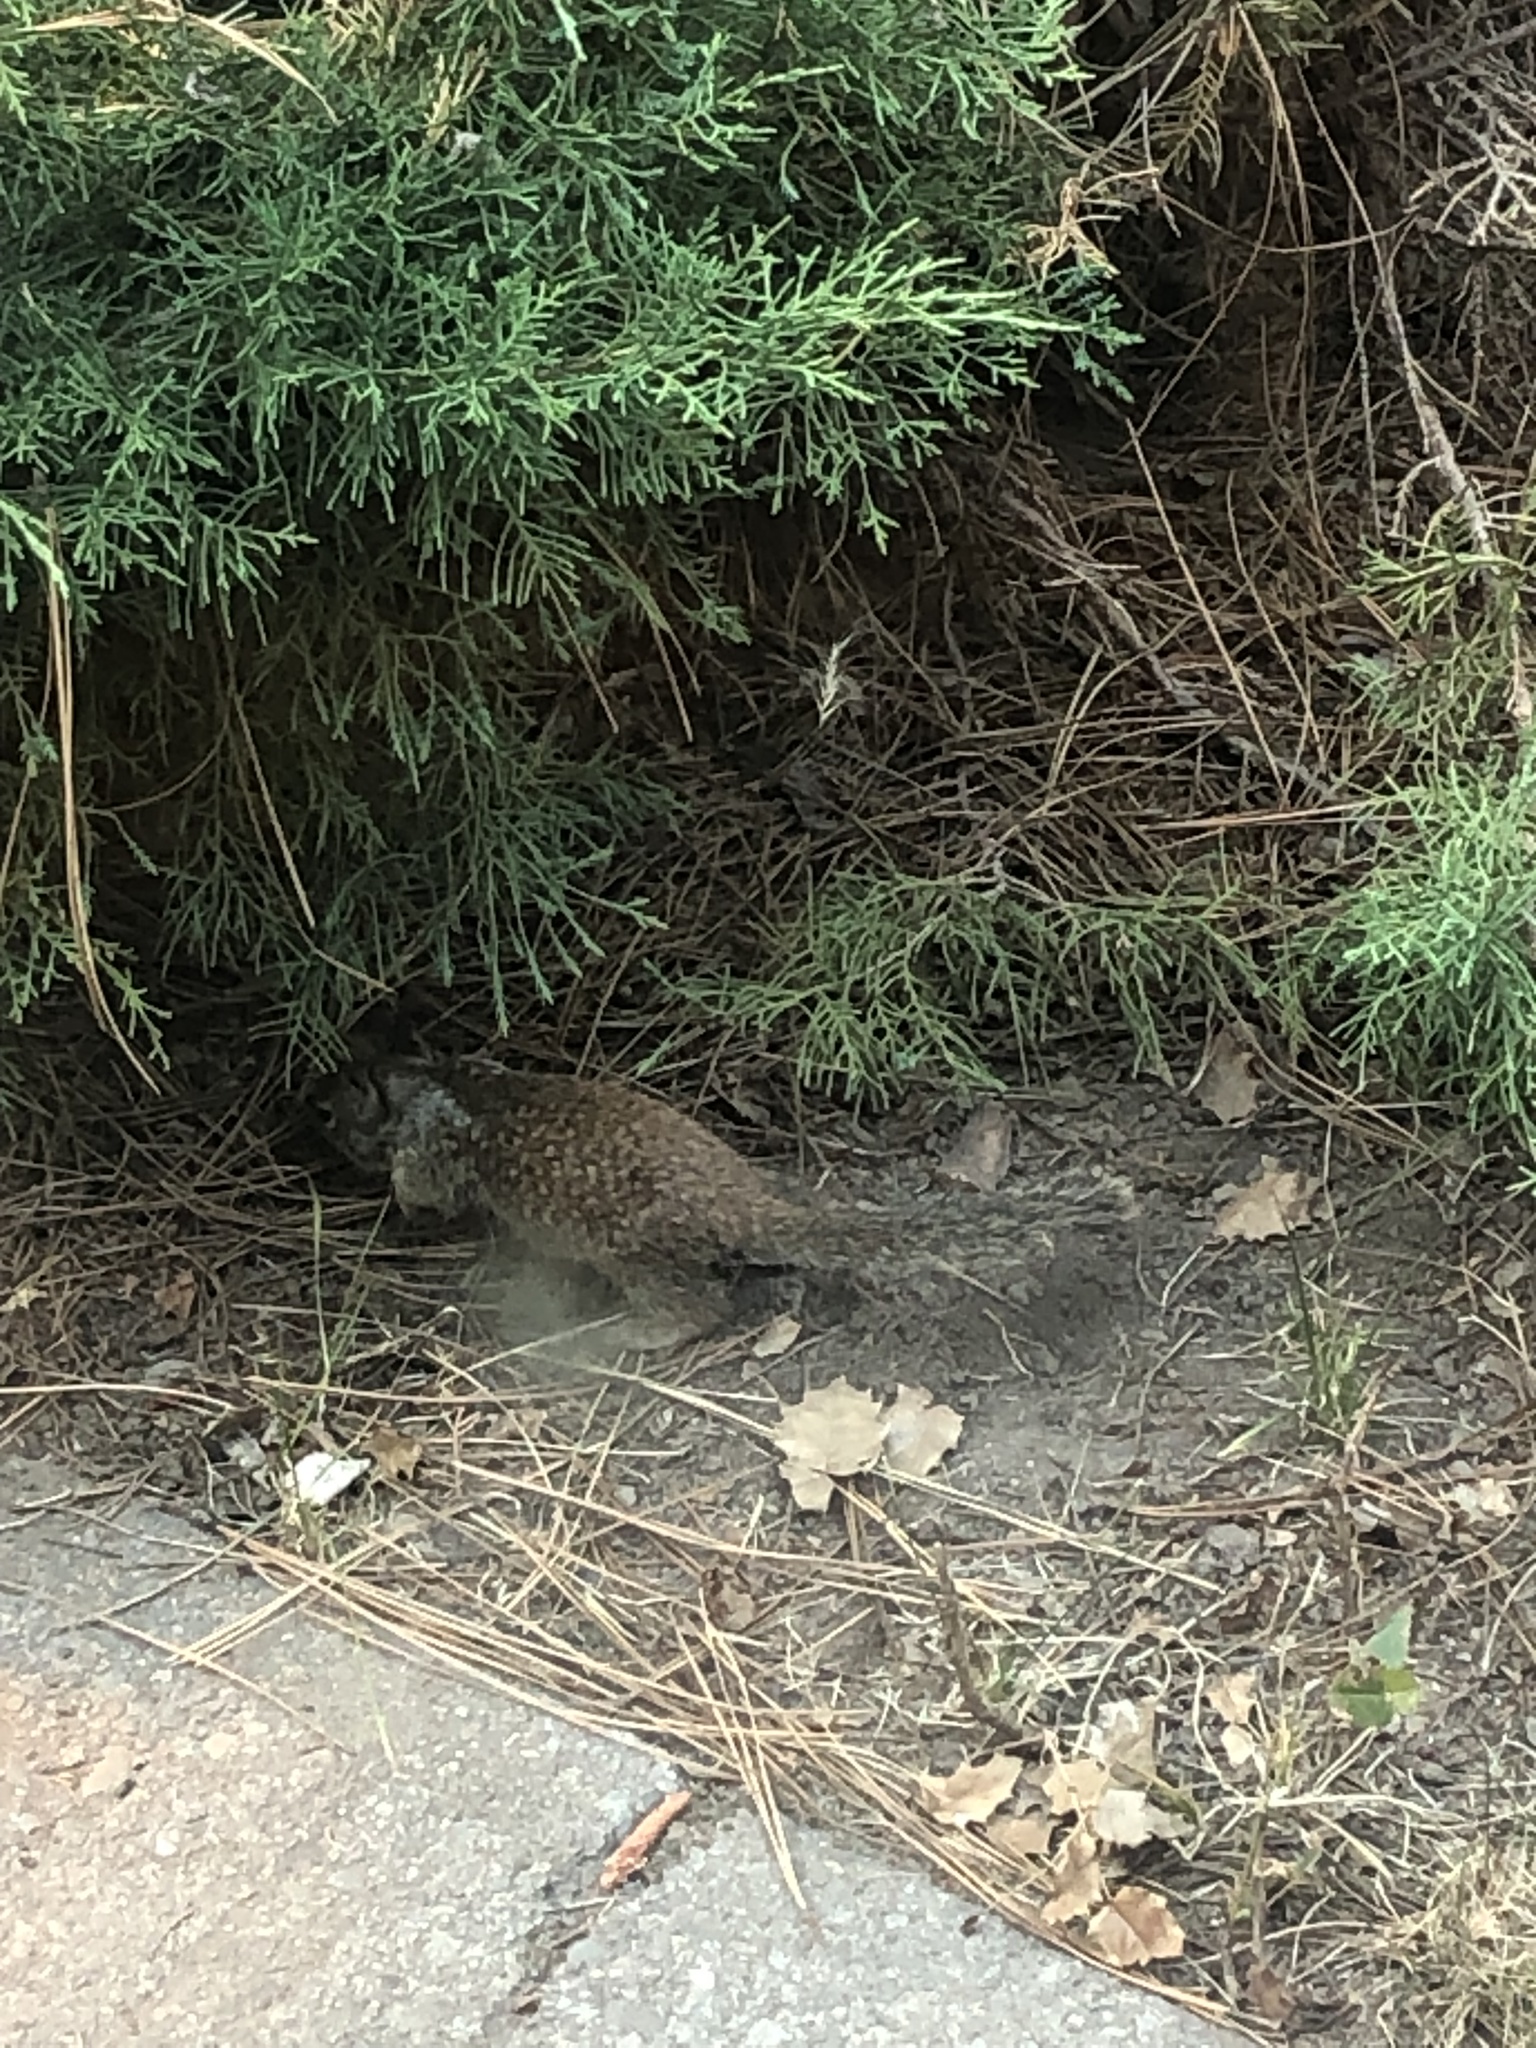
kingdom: Animalia
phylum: Chordata
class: Mammalia
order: Rodentia
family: Sciuridae
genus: Otospermophilus
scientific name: Otospermophilus beecheyi
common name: California ground squirrel
